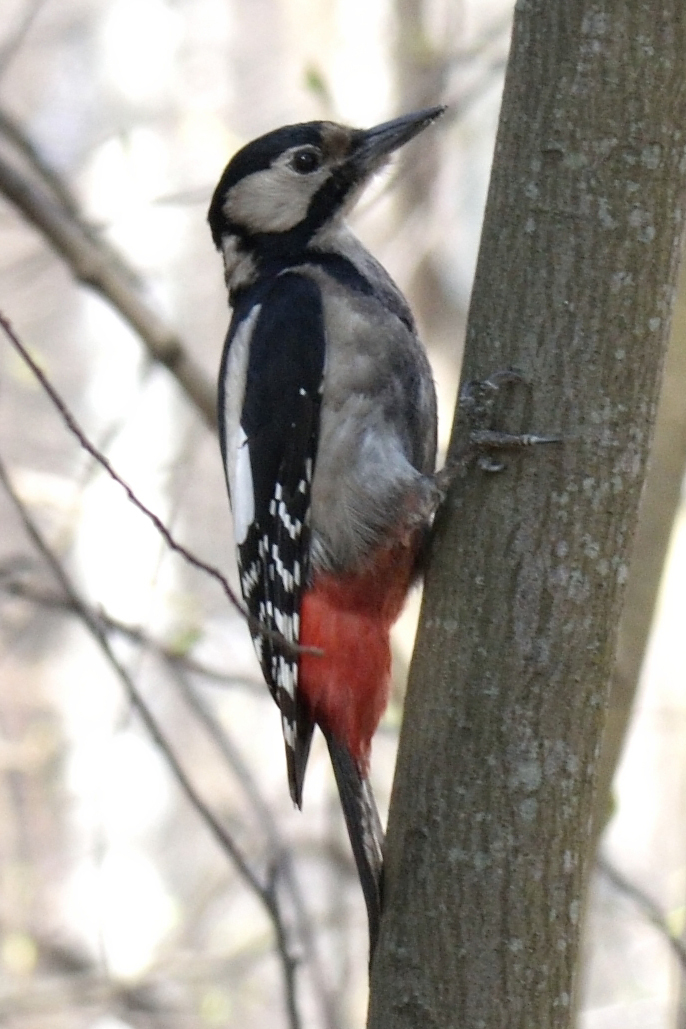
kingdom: Animalia
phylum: Chordata
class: Aves
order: Piciformes
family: Picidae
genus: Dendrocopos
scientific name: Dendrocopos major
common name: Great spotted woodpecker
